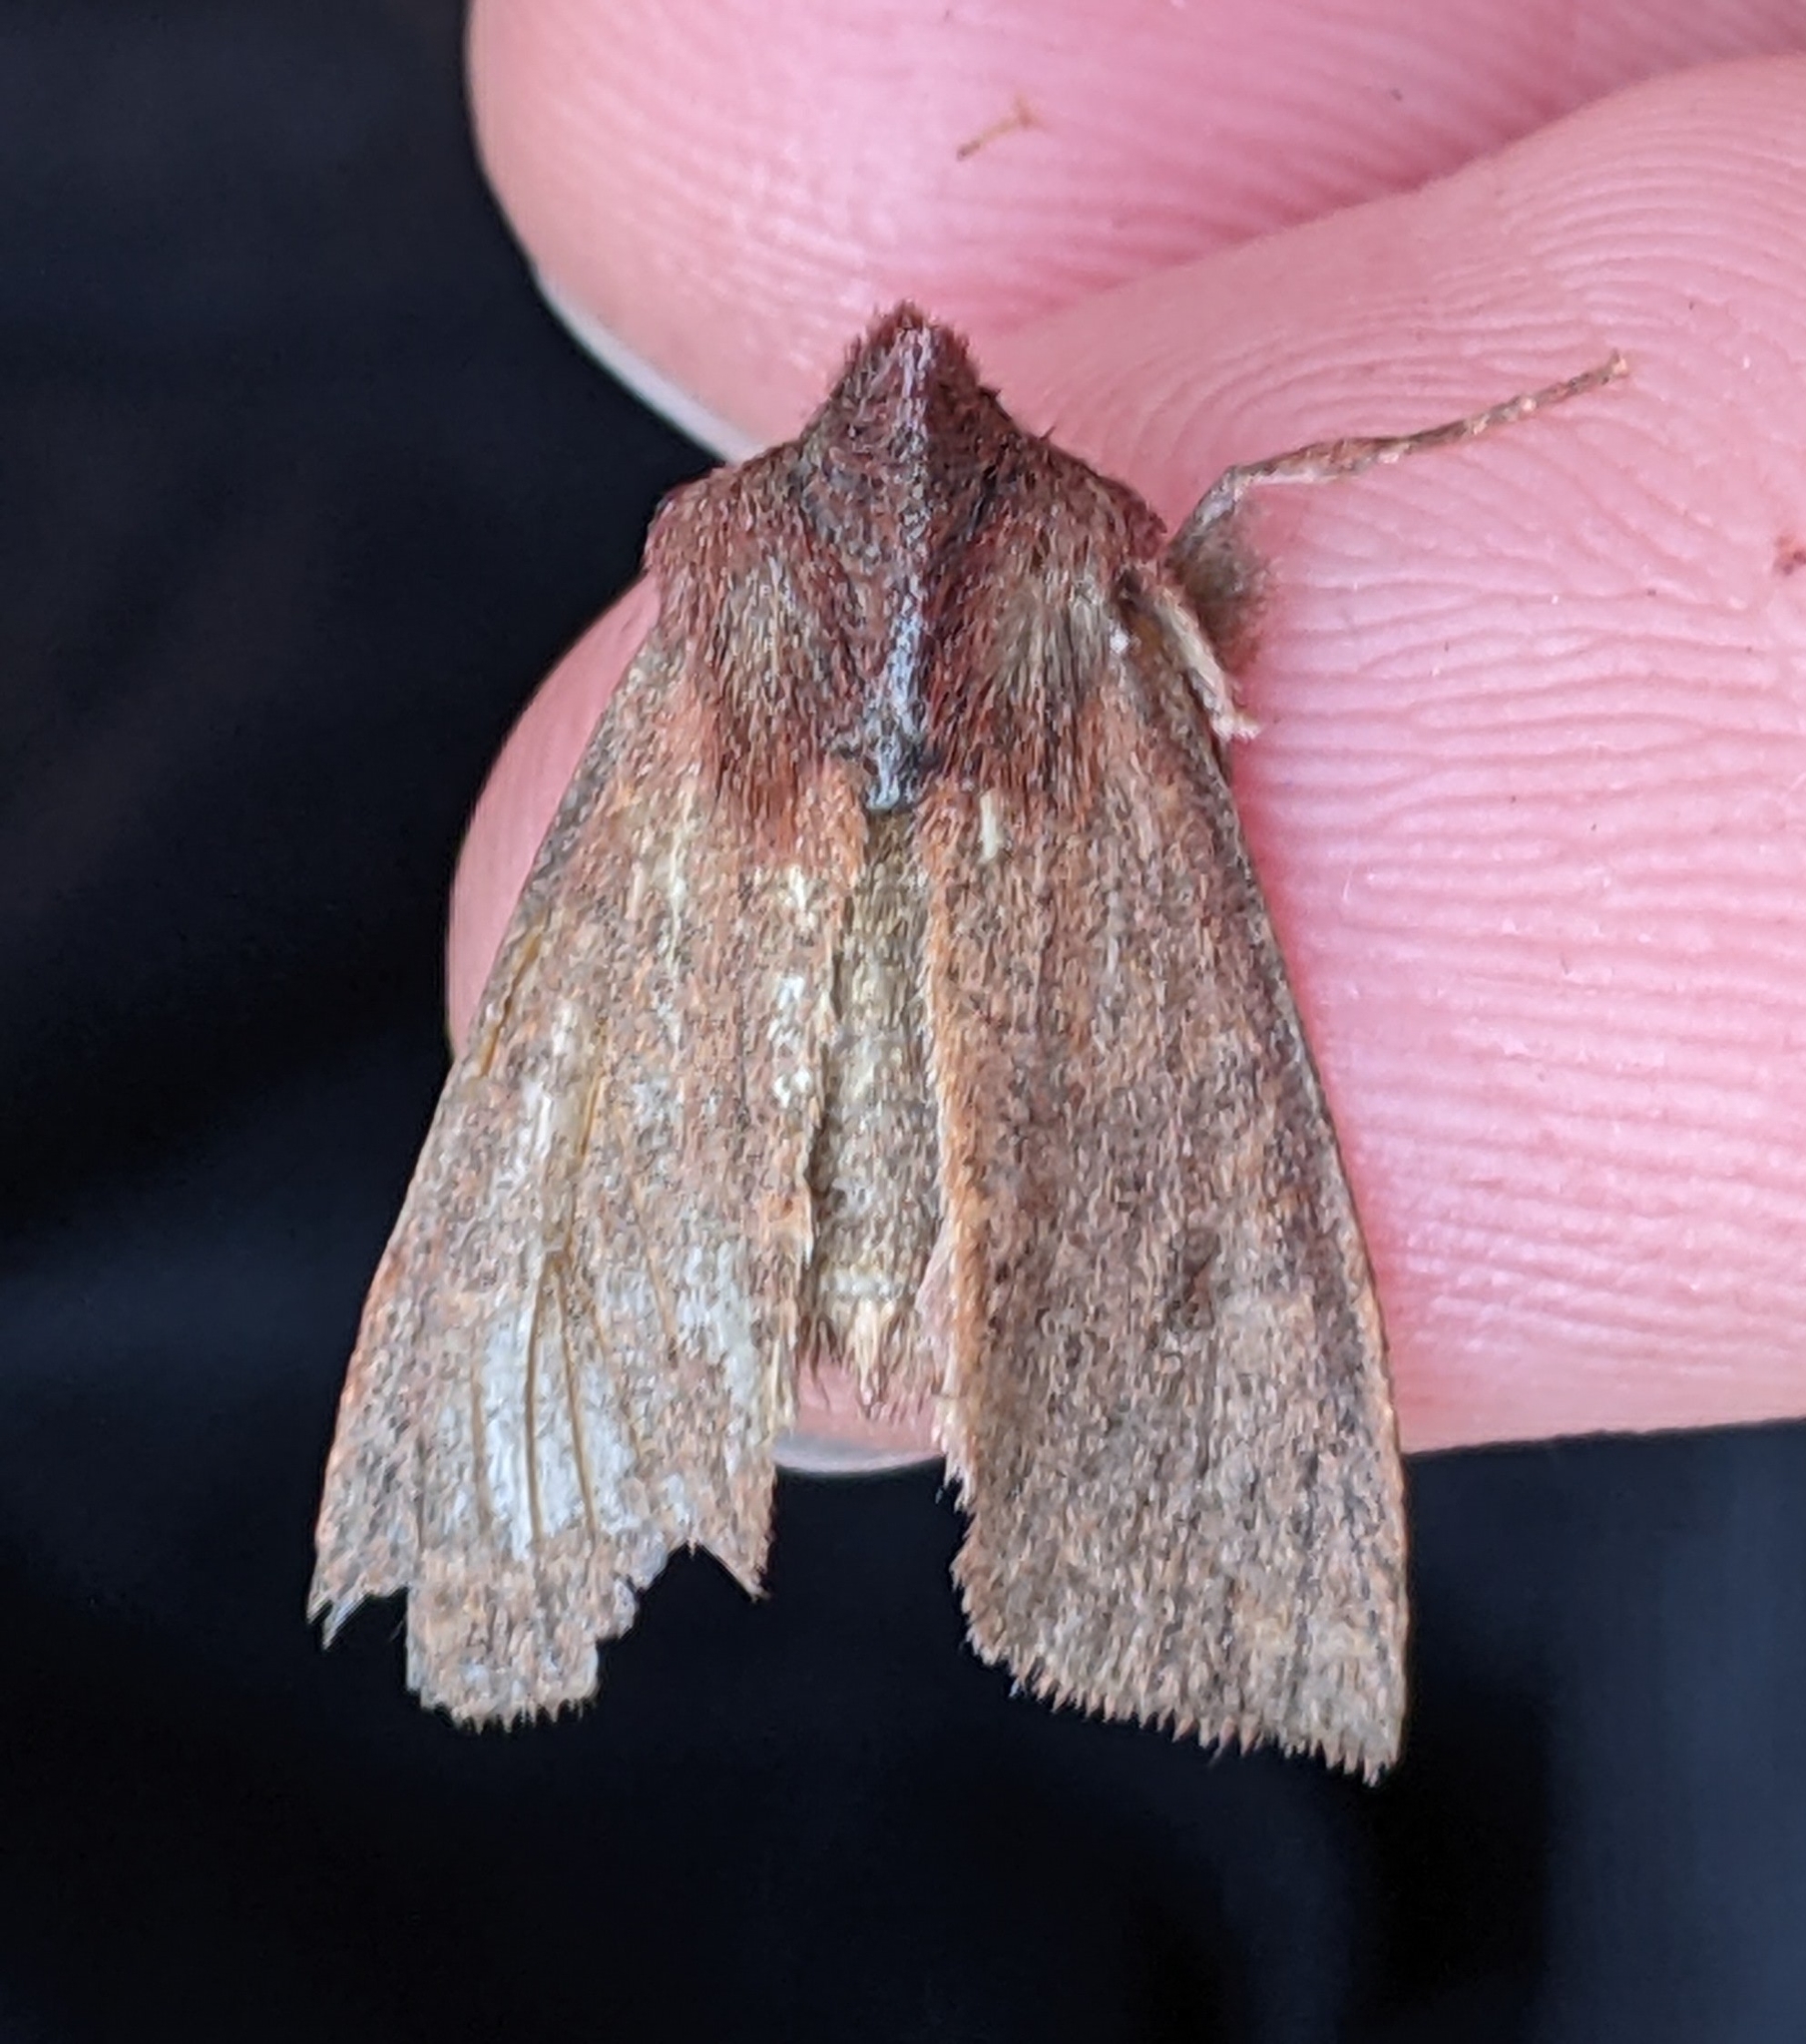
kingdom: Animalia
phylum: Arthropoda
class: Insecta
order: Lepidoptera
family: Noctuidae
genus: Orthosia
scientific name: Orthosia transparens
